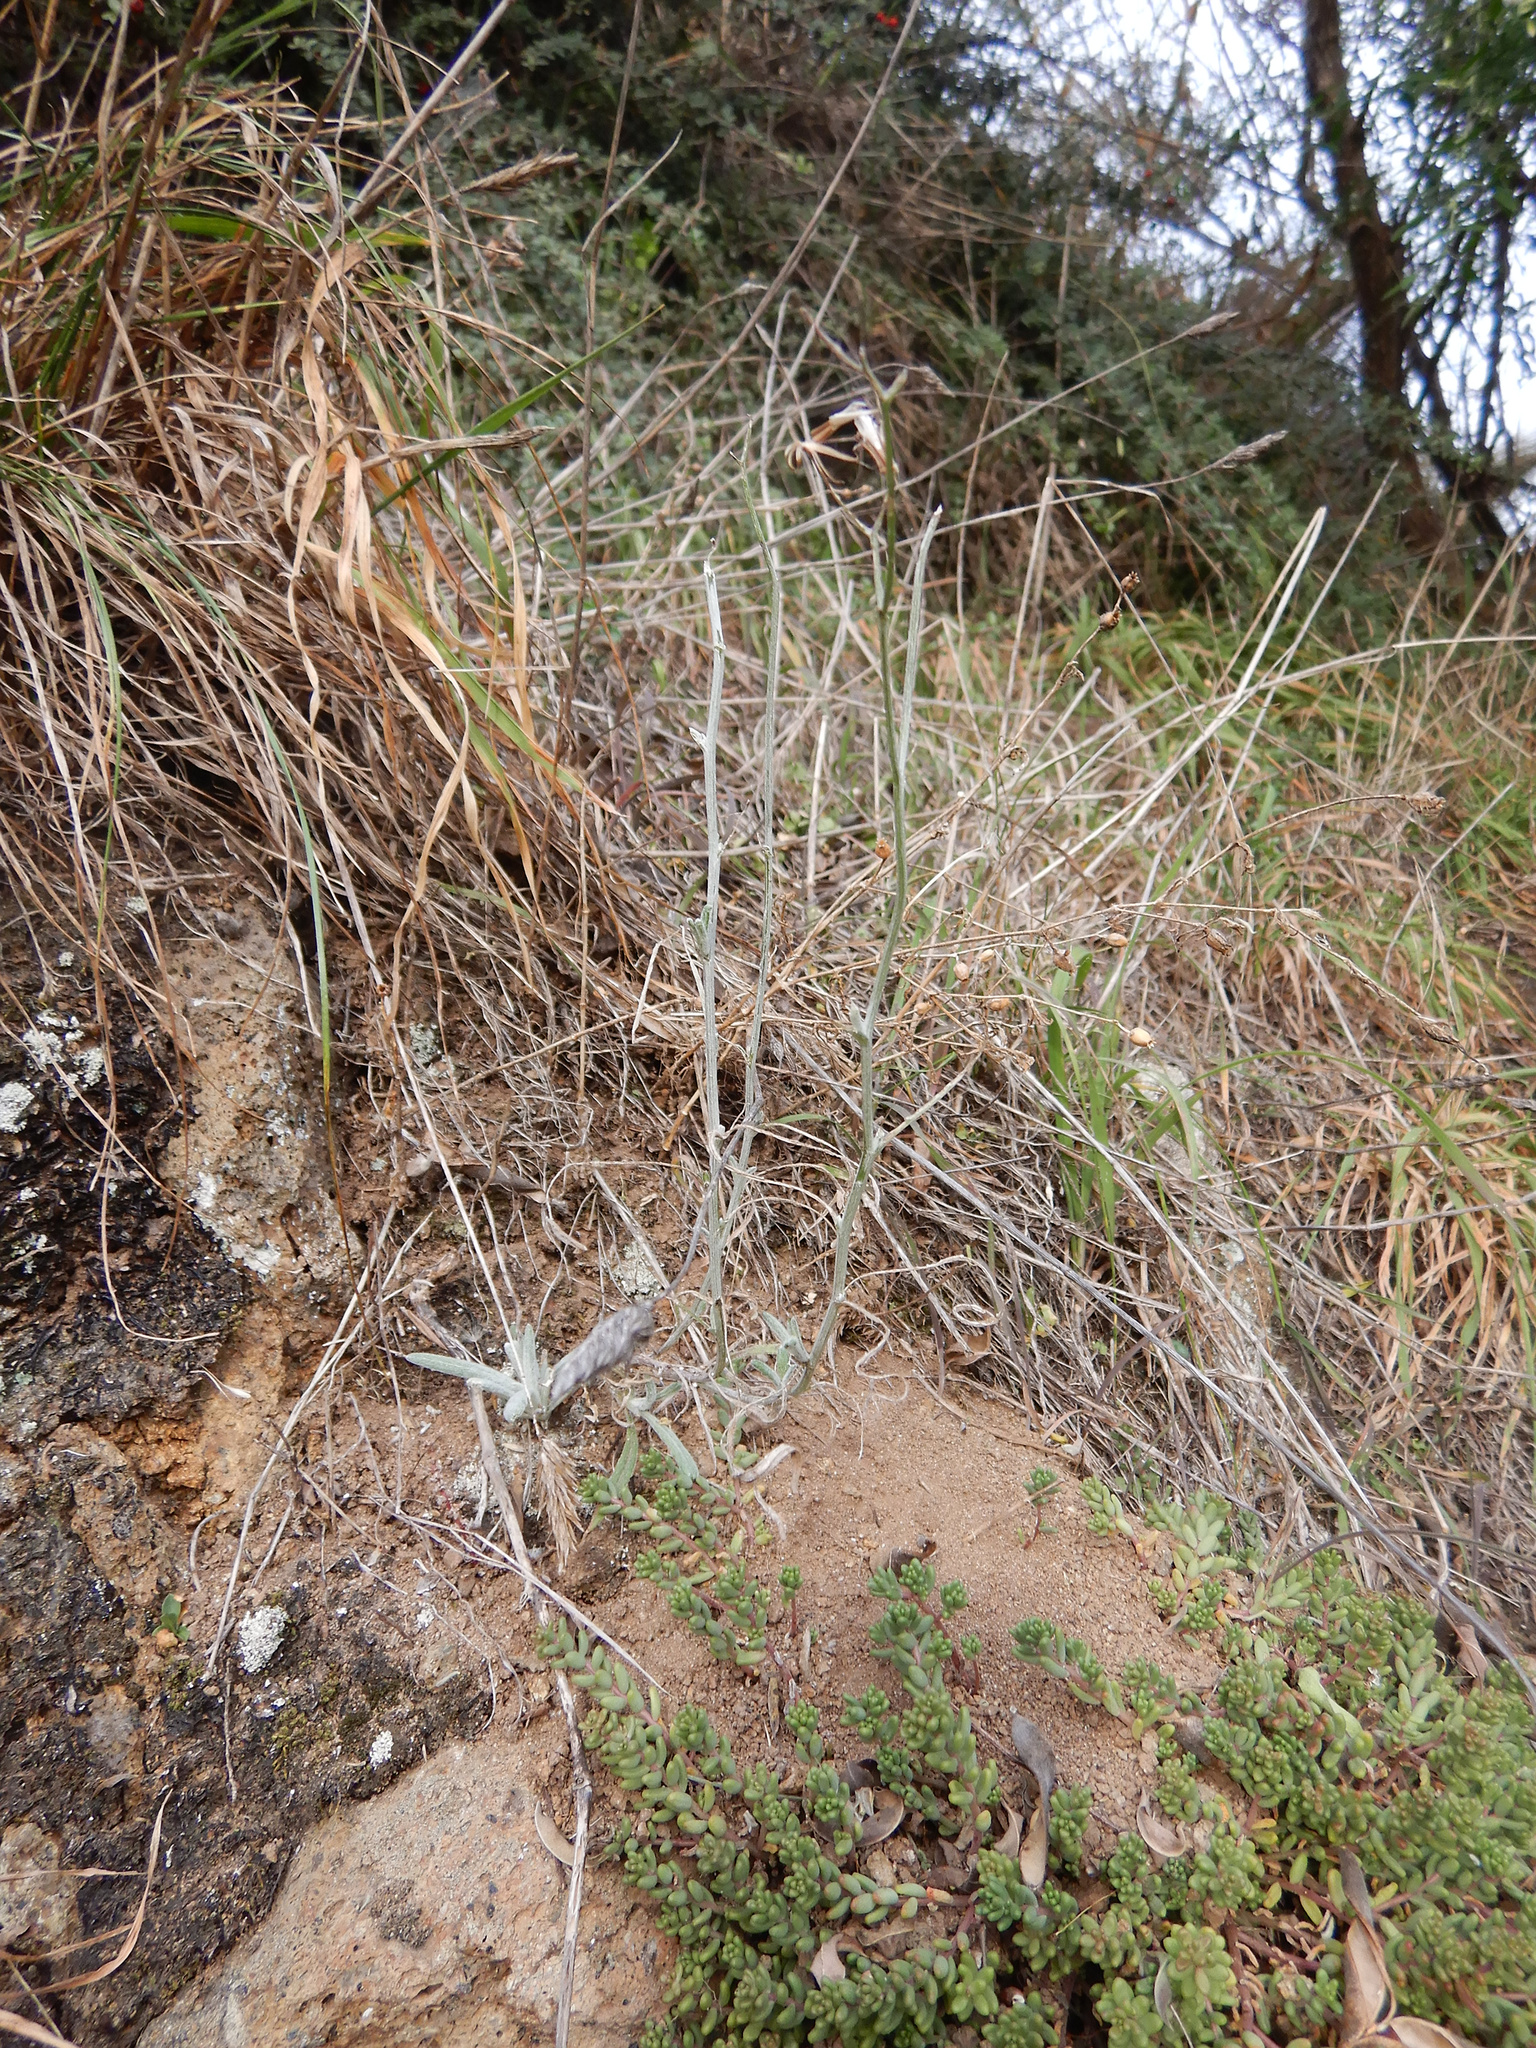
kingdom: Plantae
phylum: Tracheophyta
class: Magnoliopsida
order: Asterales
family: Asteraceae
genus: Senecio
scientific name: Senecio quadridentatus
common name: Cotton fireweed
